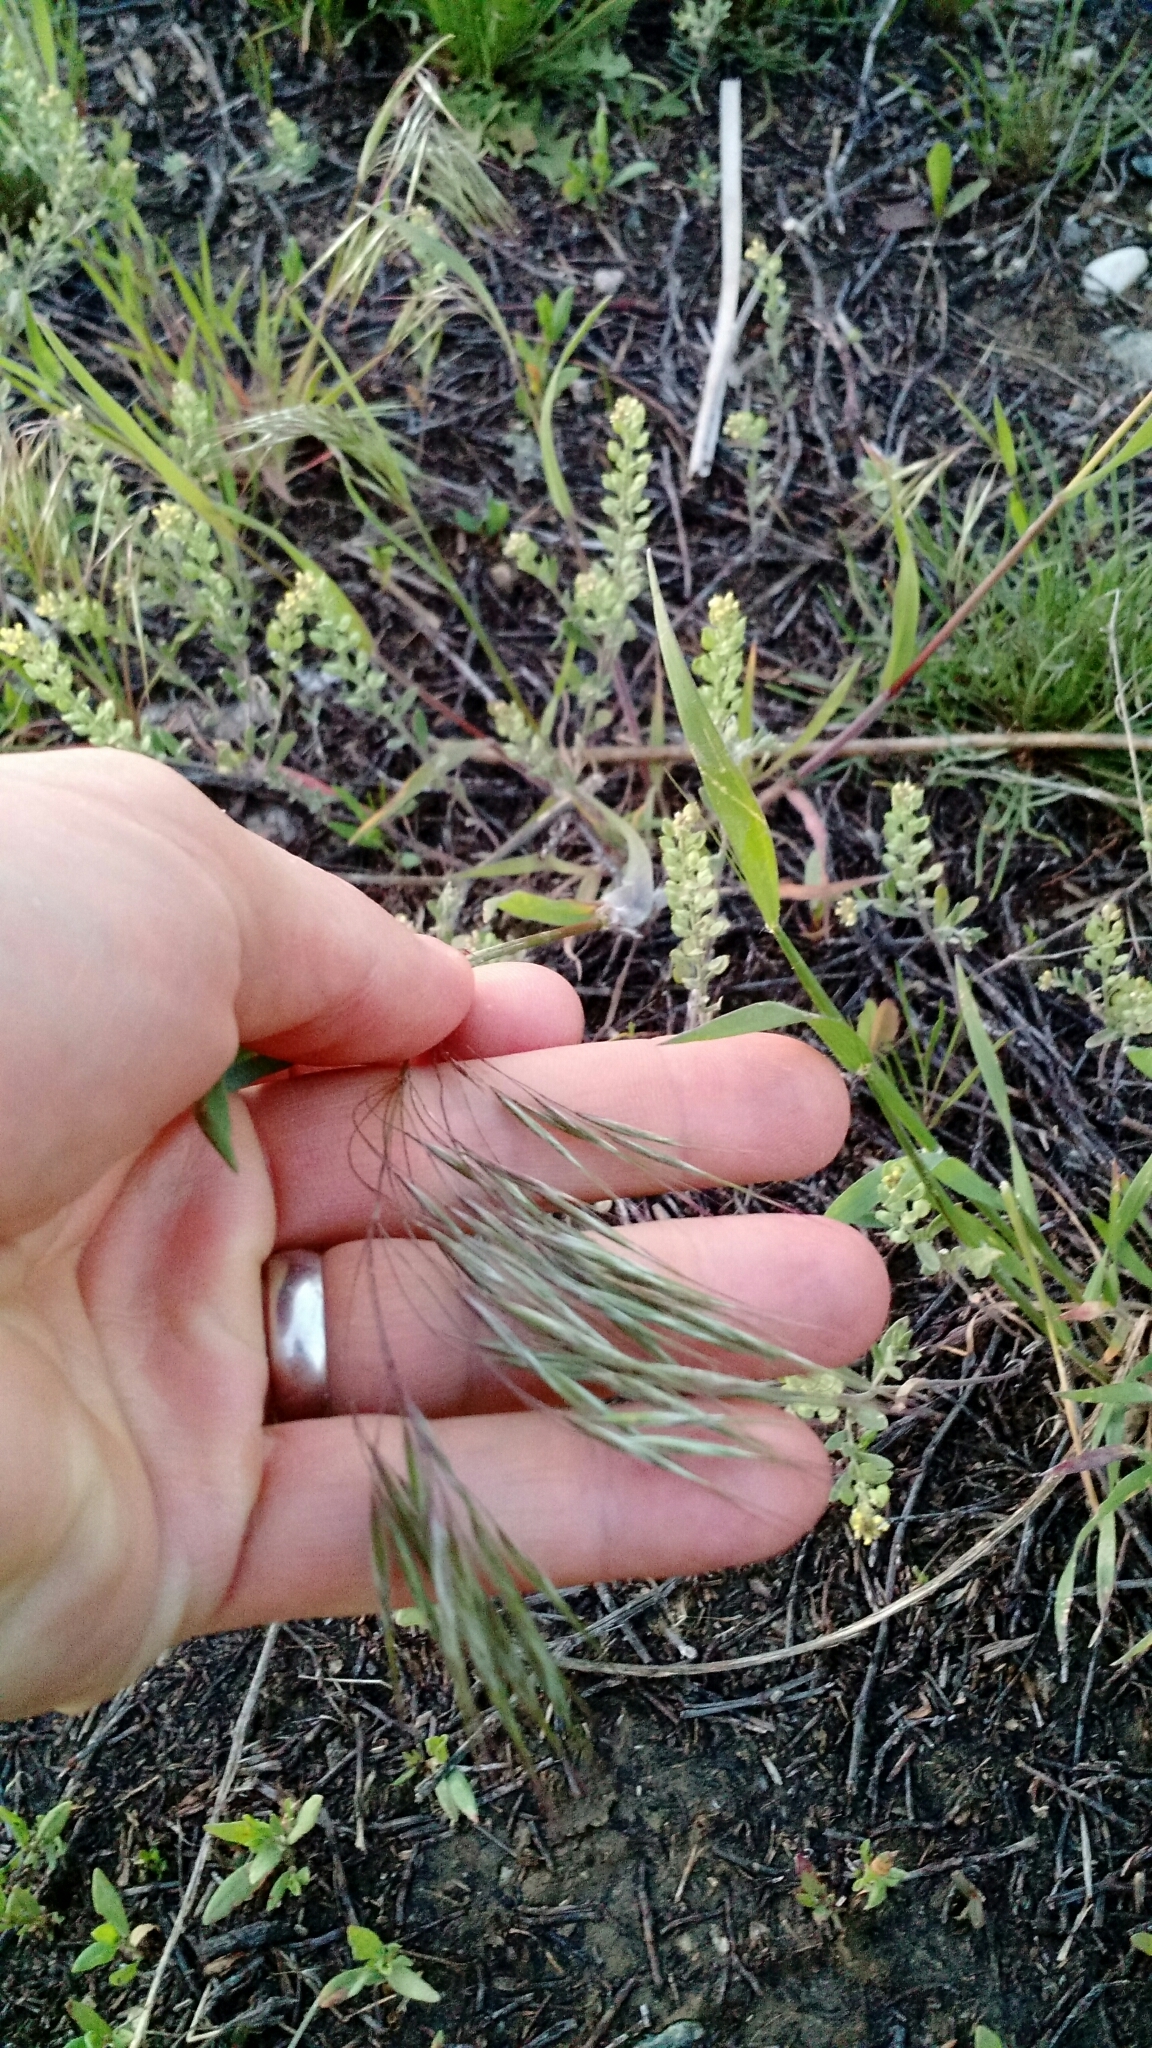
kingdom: Plantae
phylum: Tracheophyta
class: Liliopsida
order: Poales
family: Poaceae
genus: Bromus
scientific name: Bromus tectorum
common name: Cheatgrass
